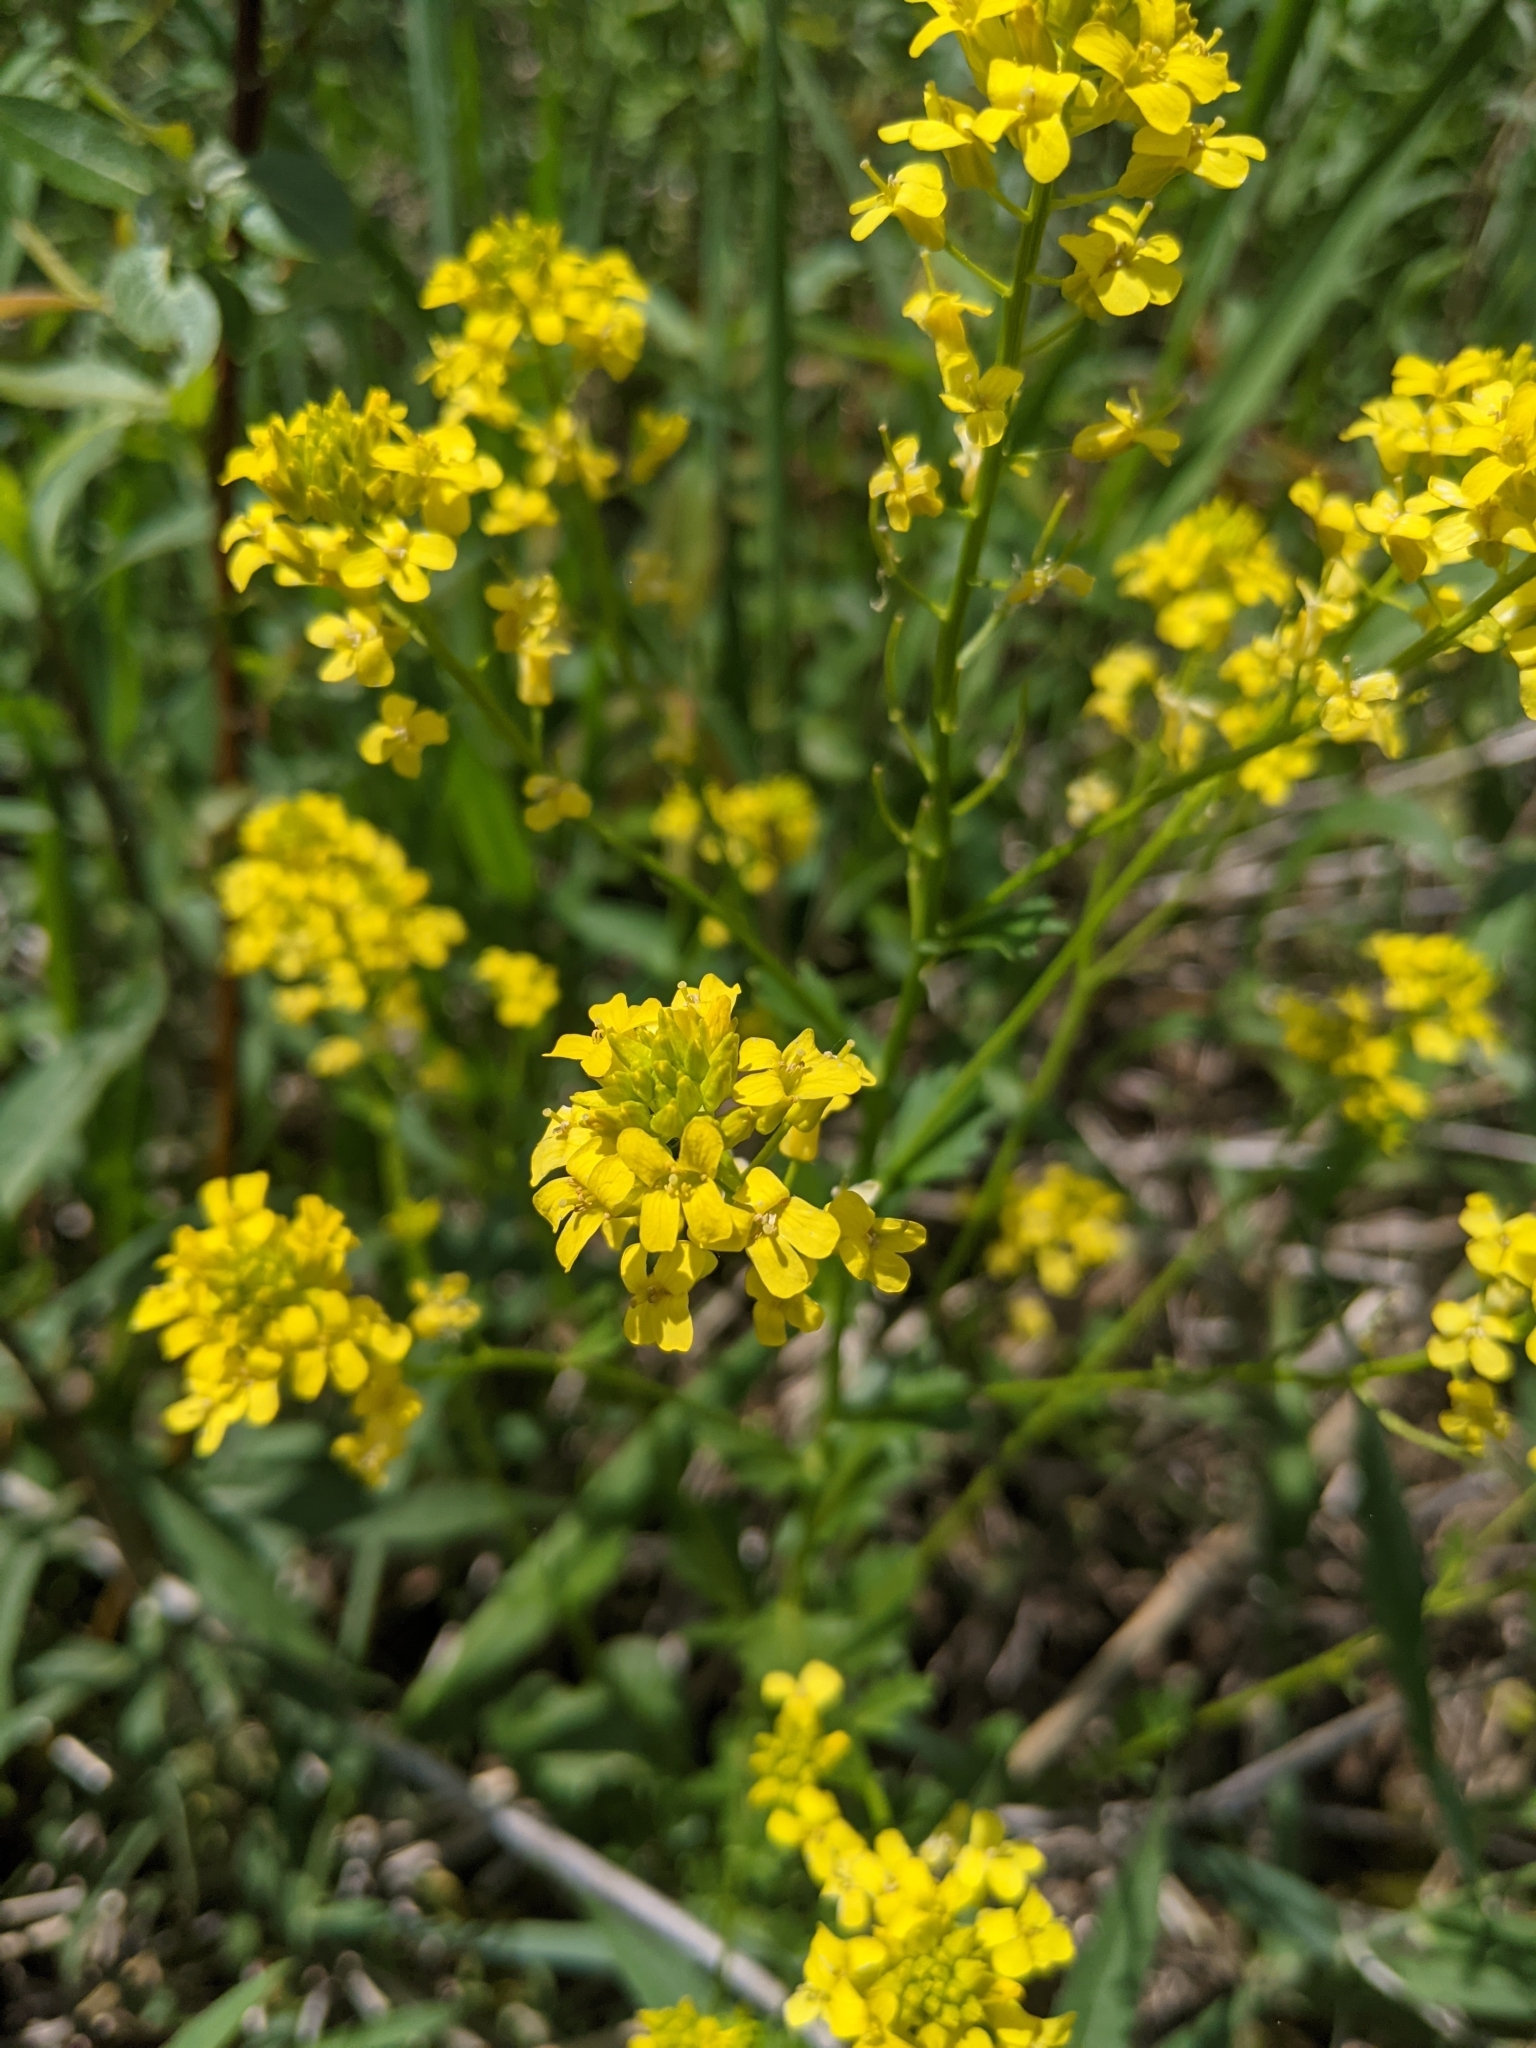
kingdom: Plantae
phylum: Tracheophyta
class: Magnoliopsida
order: Brassicales
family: Brassicaceae
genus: Barbarea
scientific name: Barbarea vulgaris
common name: Cressy-greens
